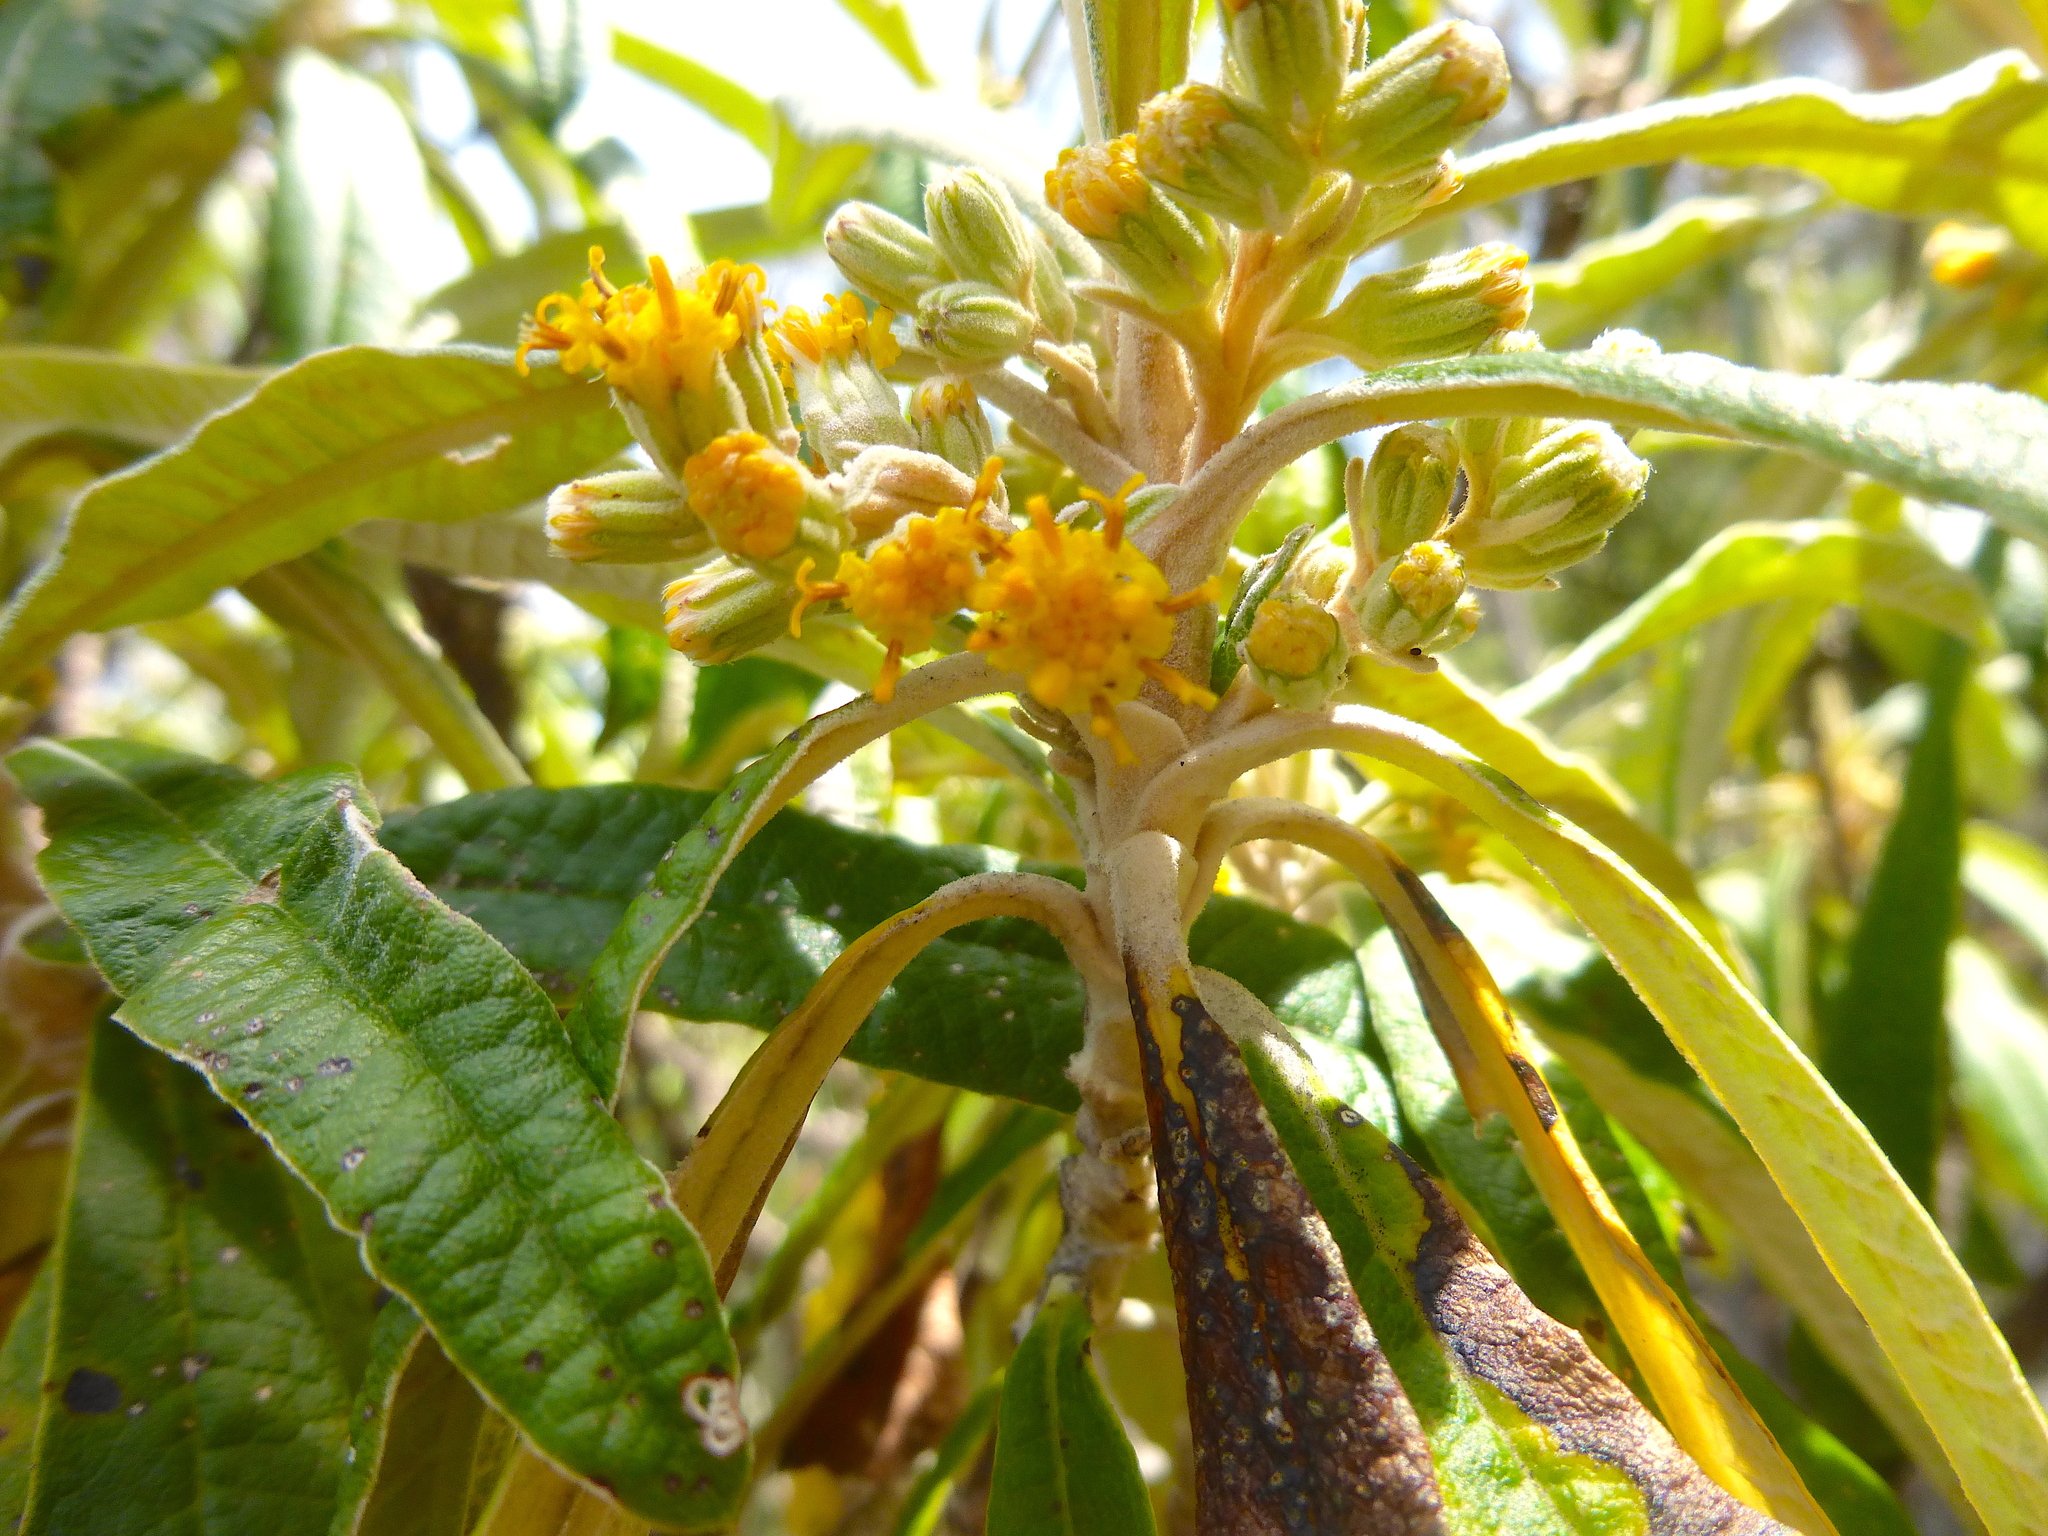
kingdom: Plantae
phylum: Tracheophyta
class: Magnoliopsida
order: Asterales
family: Asteraceae
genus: Bedfordia
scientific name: Bedfordia salicina
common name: Blanketleaf
